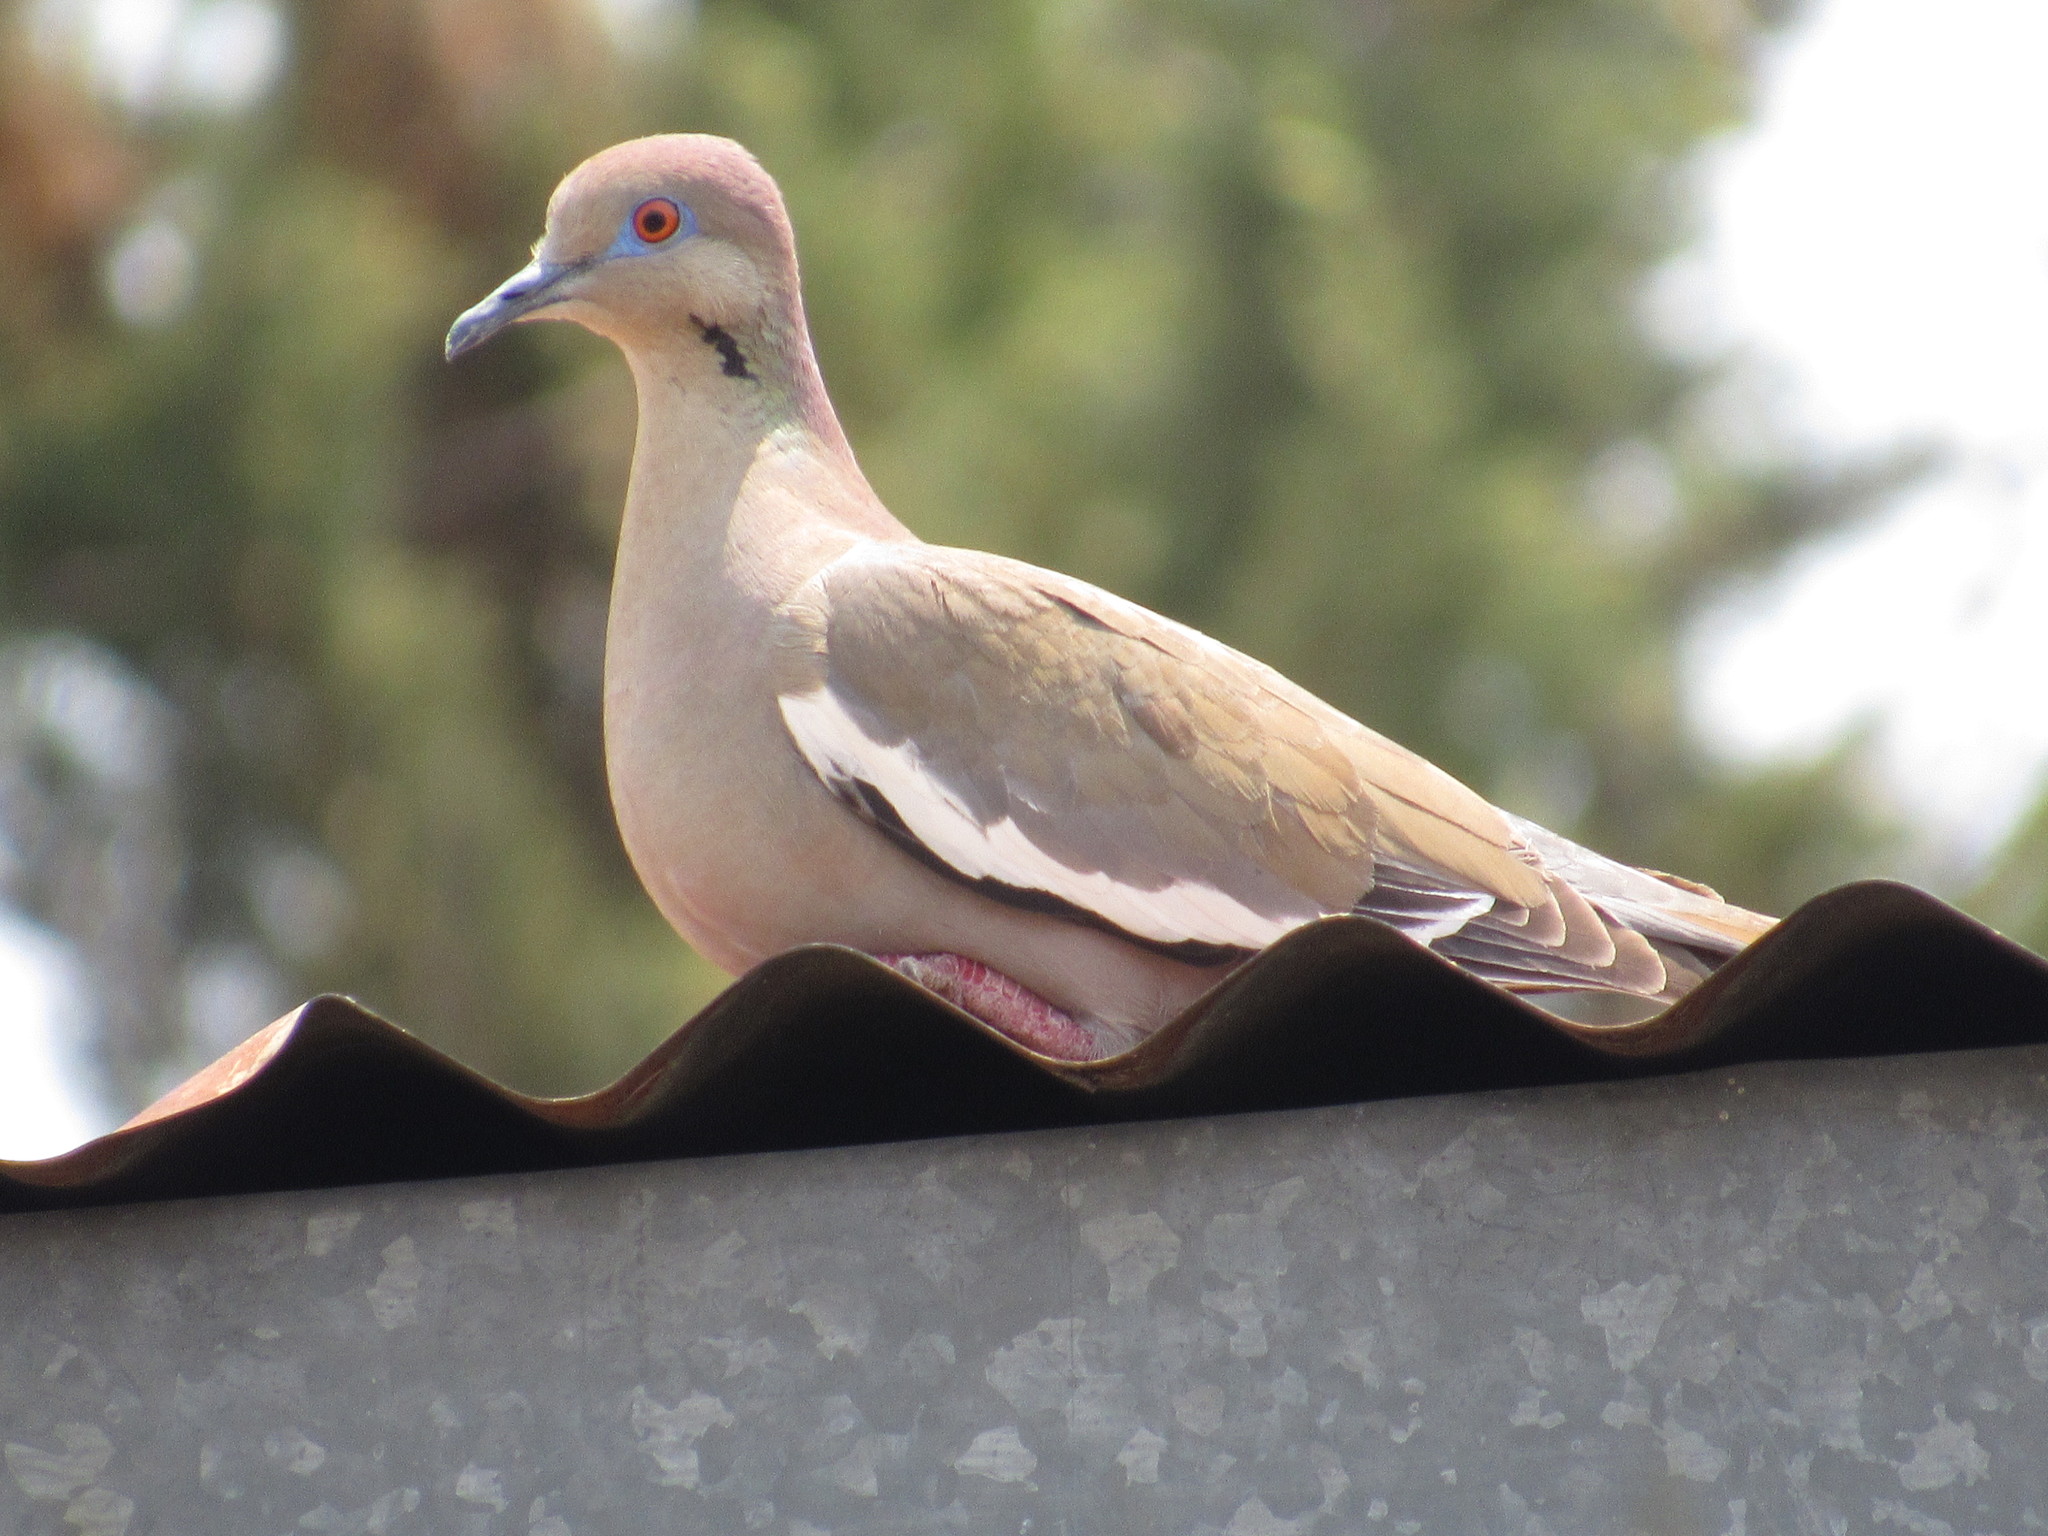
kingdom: Animalia
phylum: Chordata
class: Aves
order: Columbiformes
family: Columbidae
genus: Zenaida
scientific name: Zenaida asiatica
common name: White-winged dove
